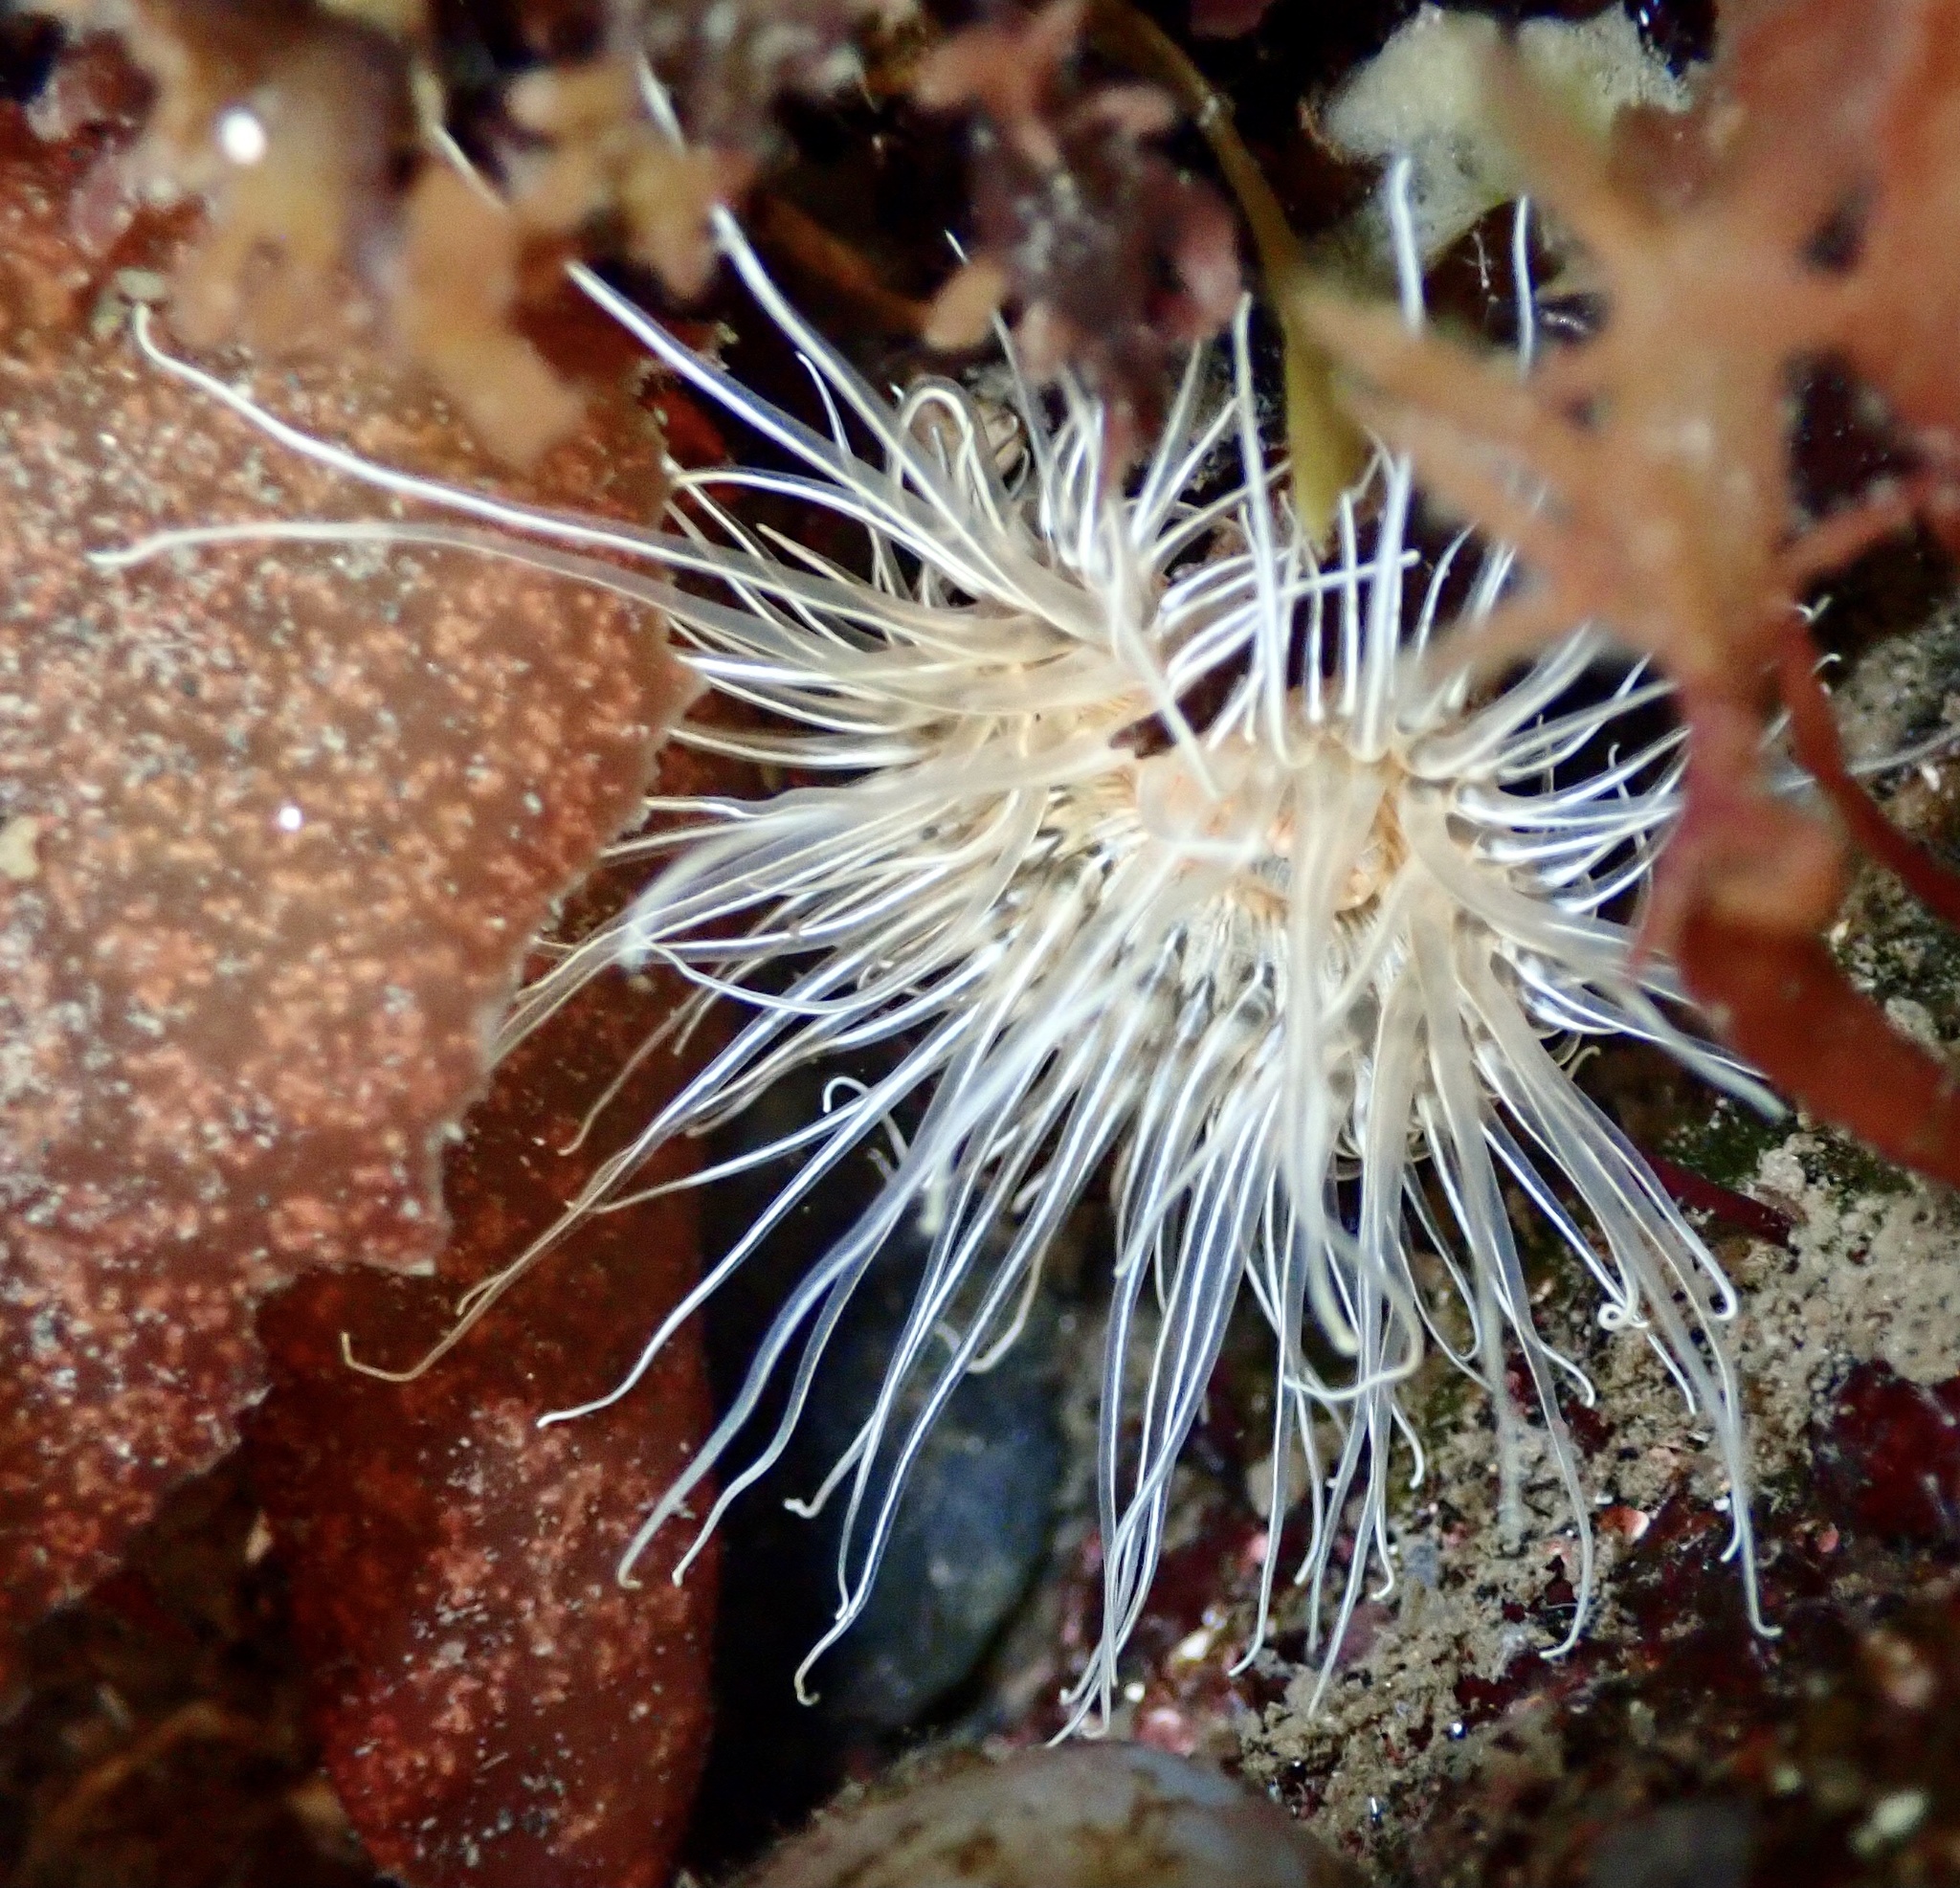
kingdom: Animalia
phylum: Cnidaria
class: Anthozoa
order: Actiniaria
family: Sagartiidae
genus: Sagartia
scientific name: Sagartia undata
